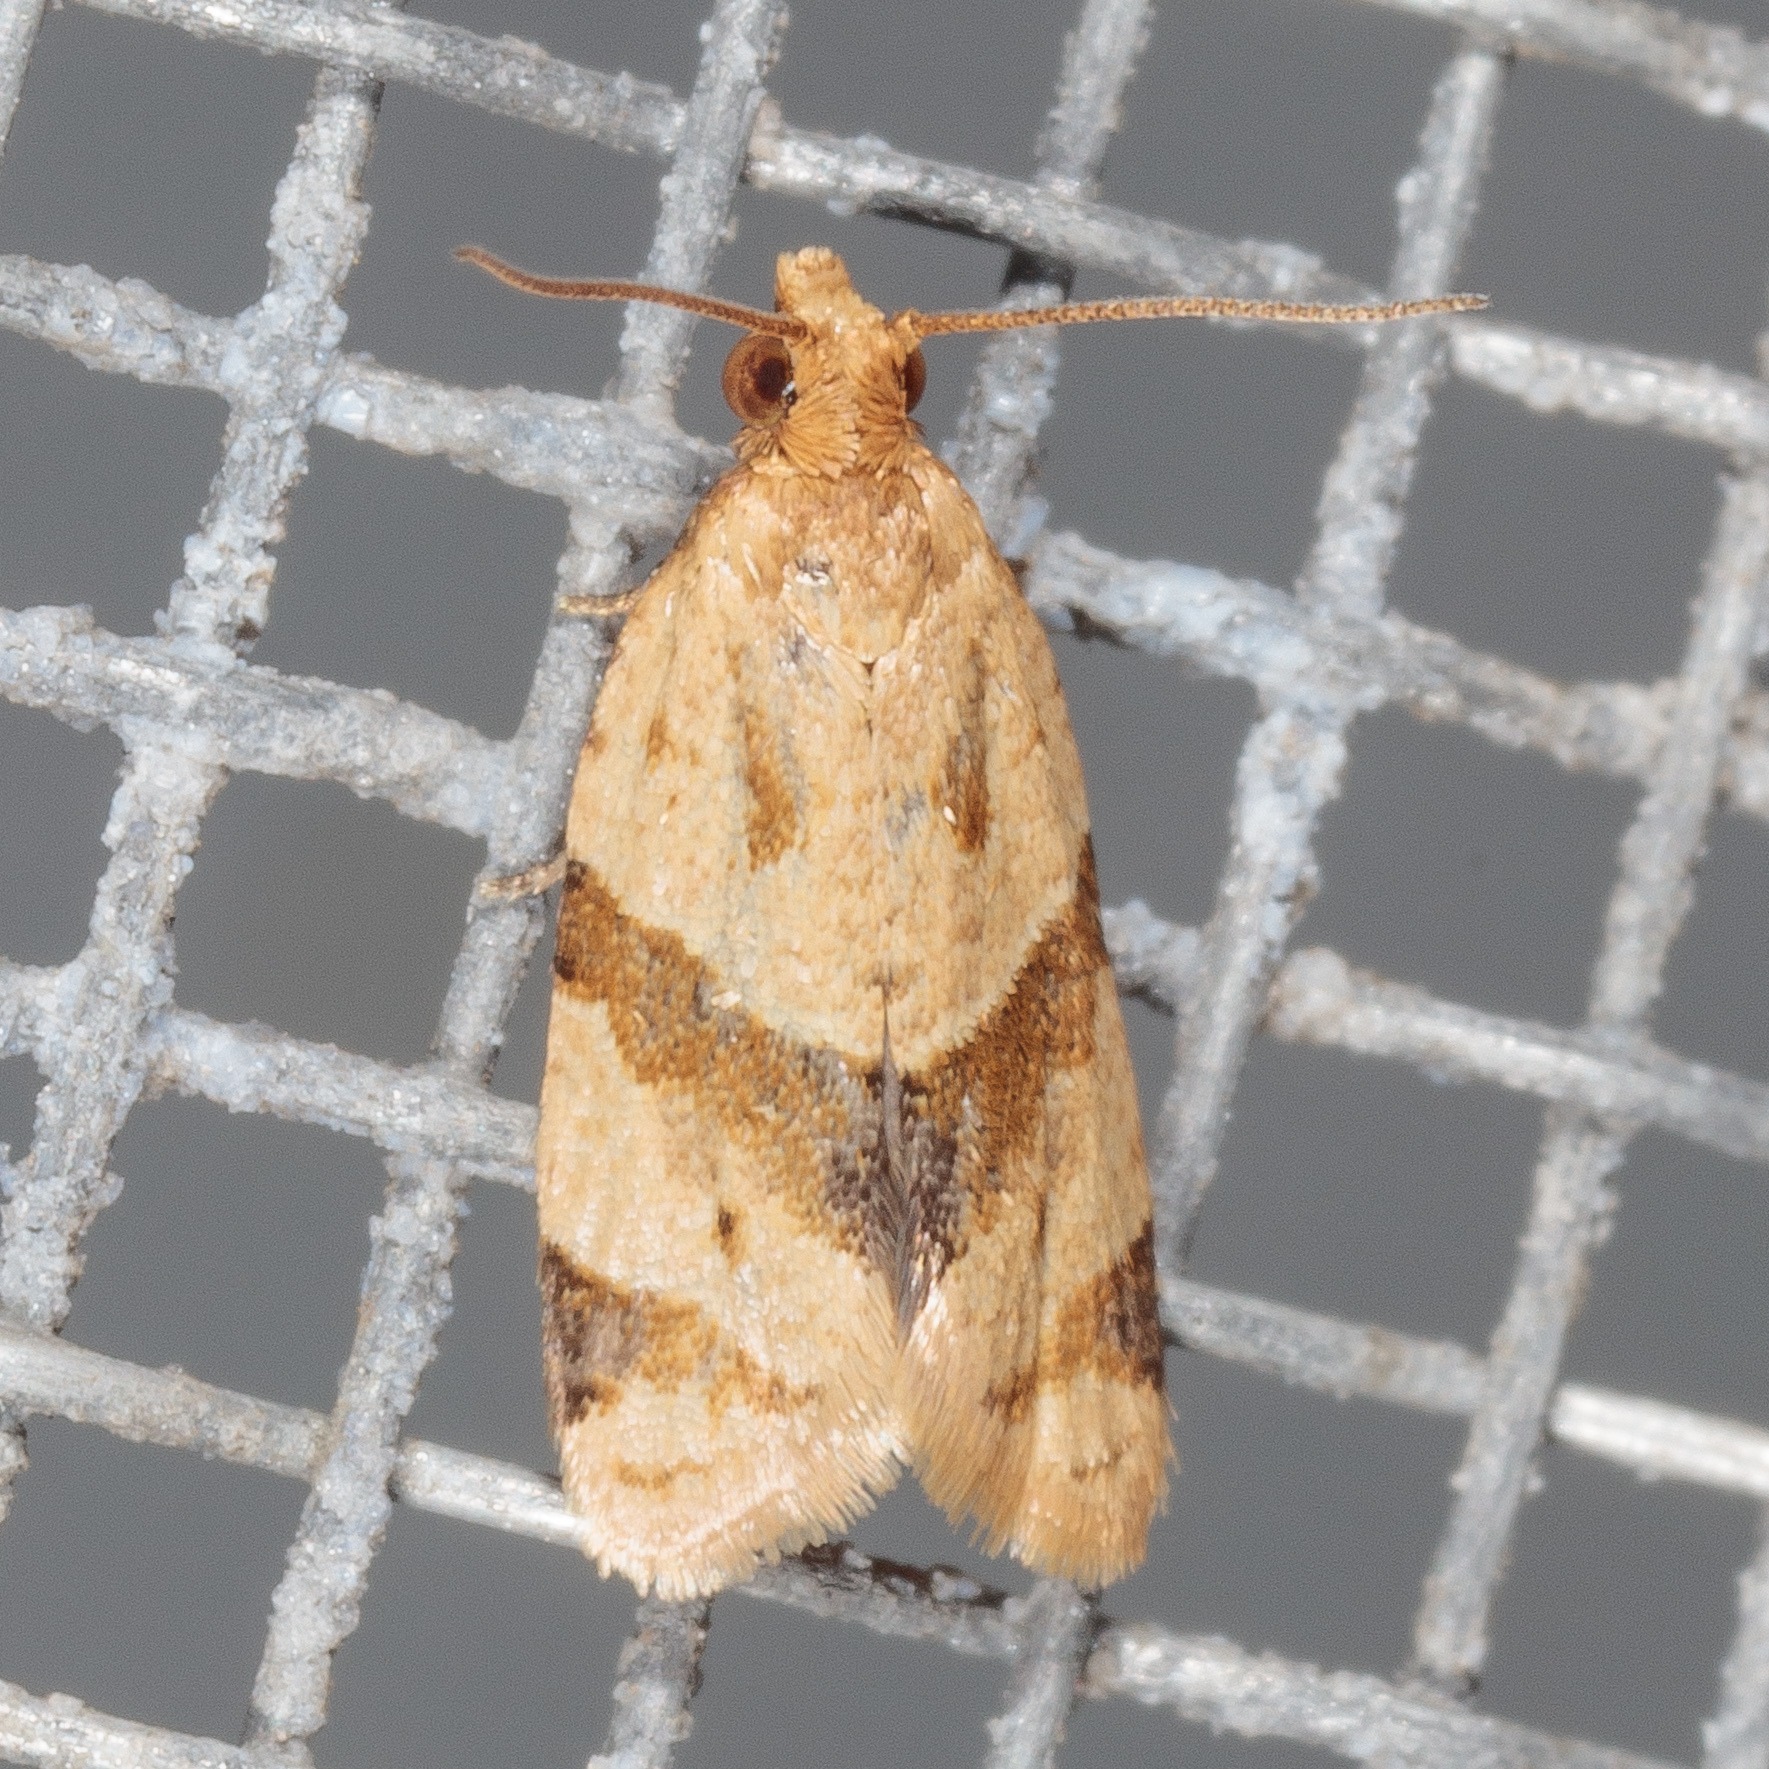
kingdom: Animalia
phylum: Arthropoda
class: Insecta
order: Lepidoptera
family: Tortricidae
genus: Clepsis
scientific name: Clepsis peritana
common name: Garden tortrix
